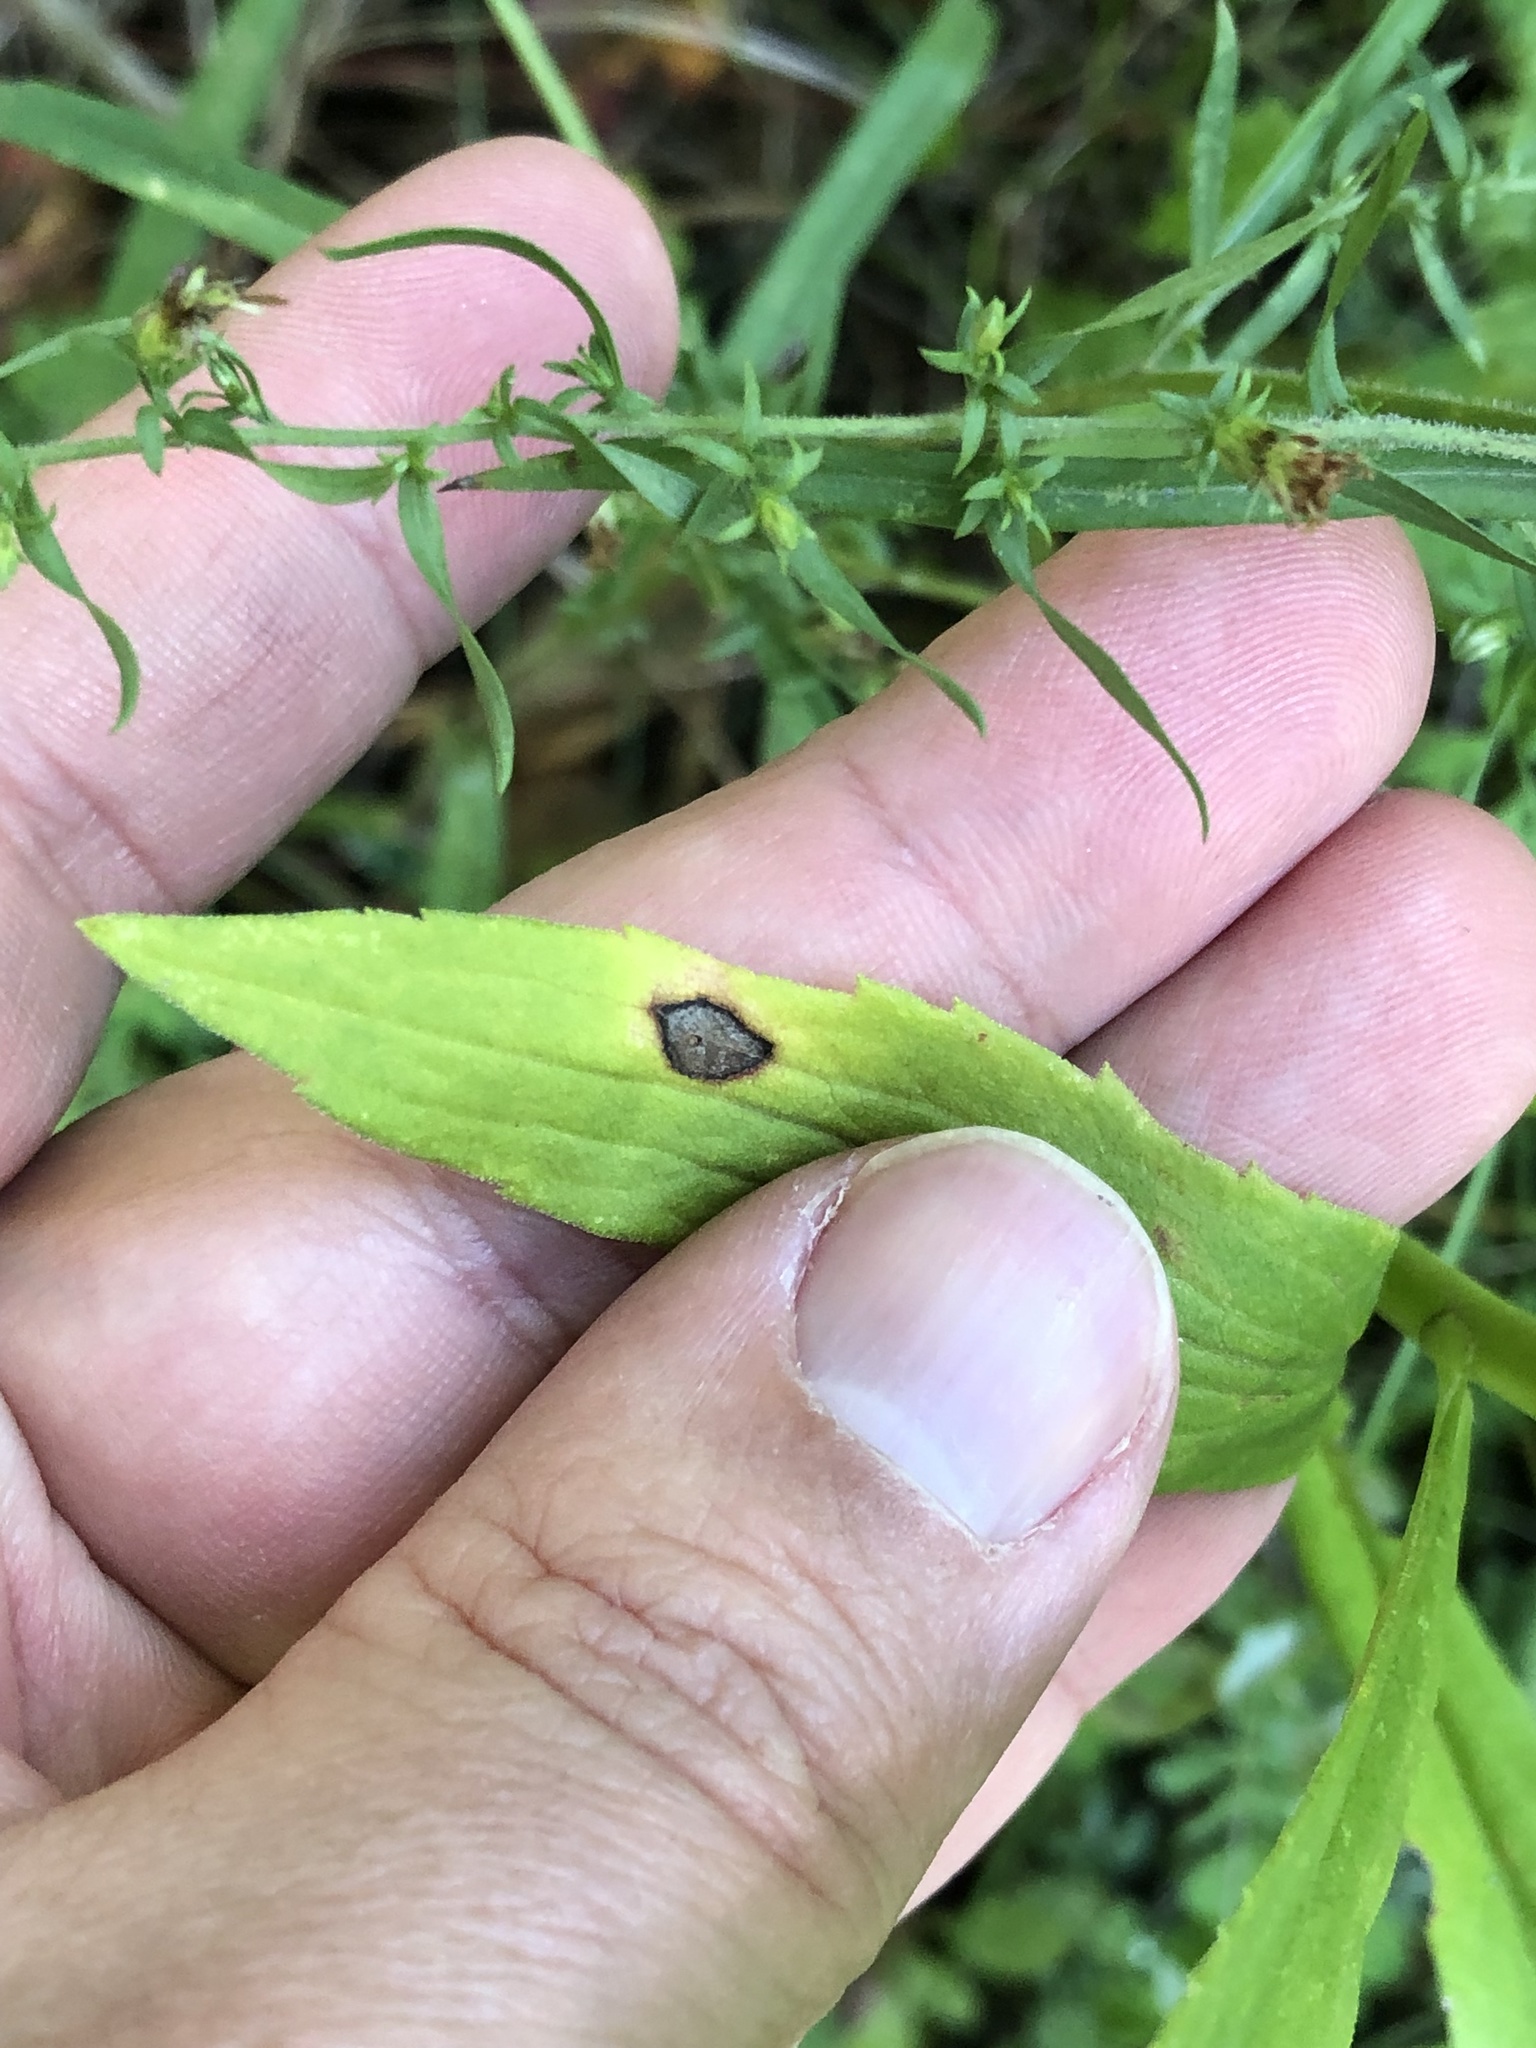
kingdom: Animalia
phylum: Arthropoda
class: Insecta
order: Diptera
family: Cecidomyiidae
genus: Asteromyia
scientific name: Asteromyia carbonifera
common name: Carbonifera goldenrod gall midge
